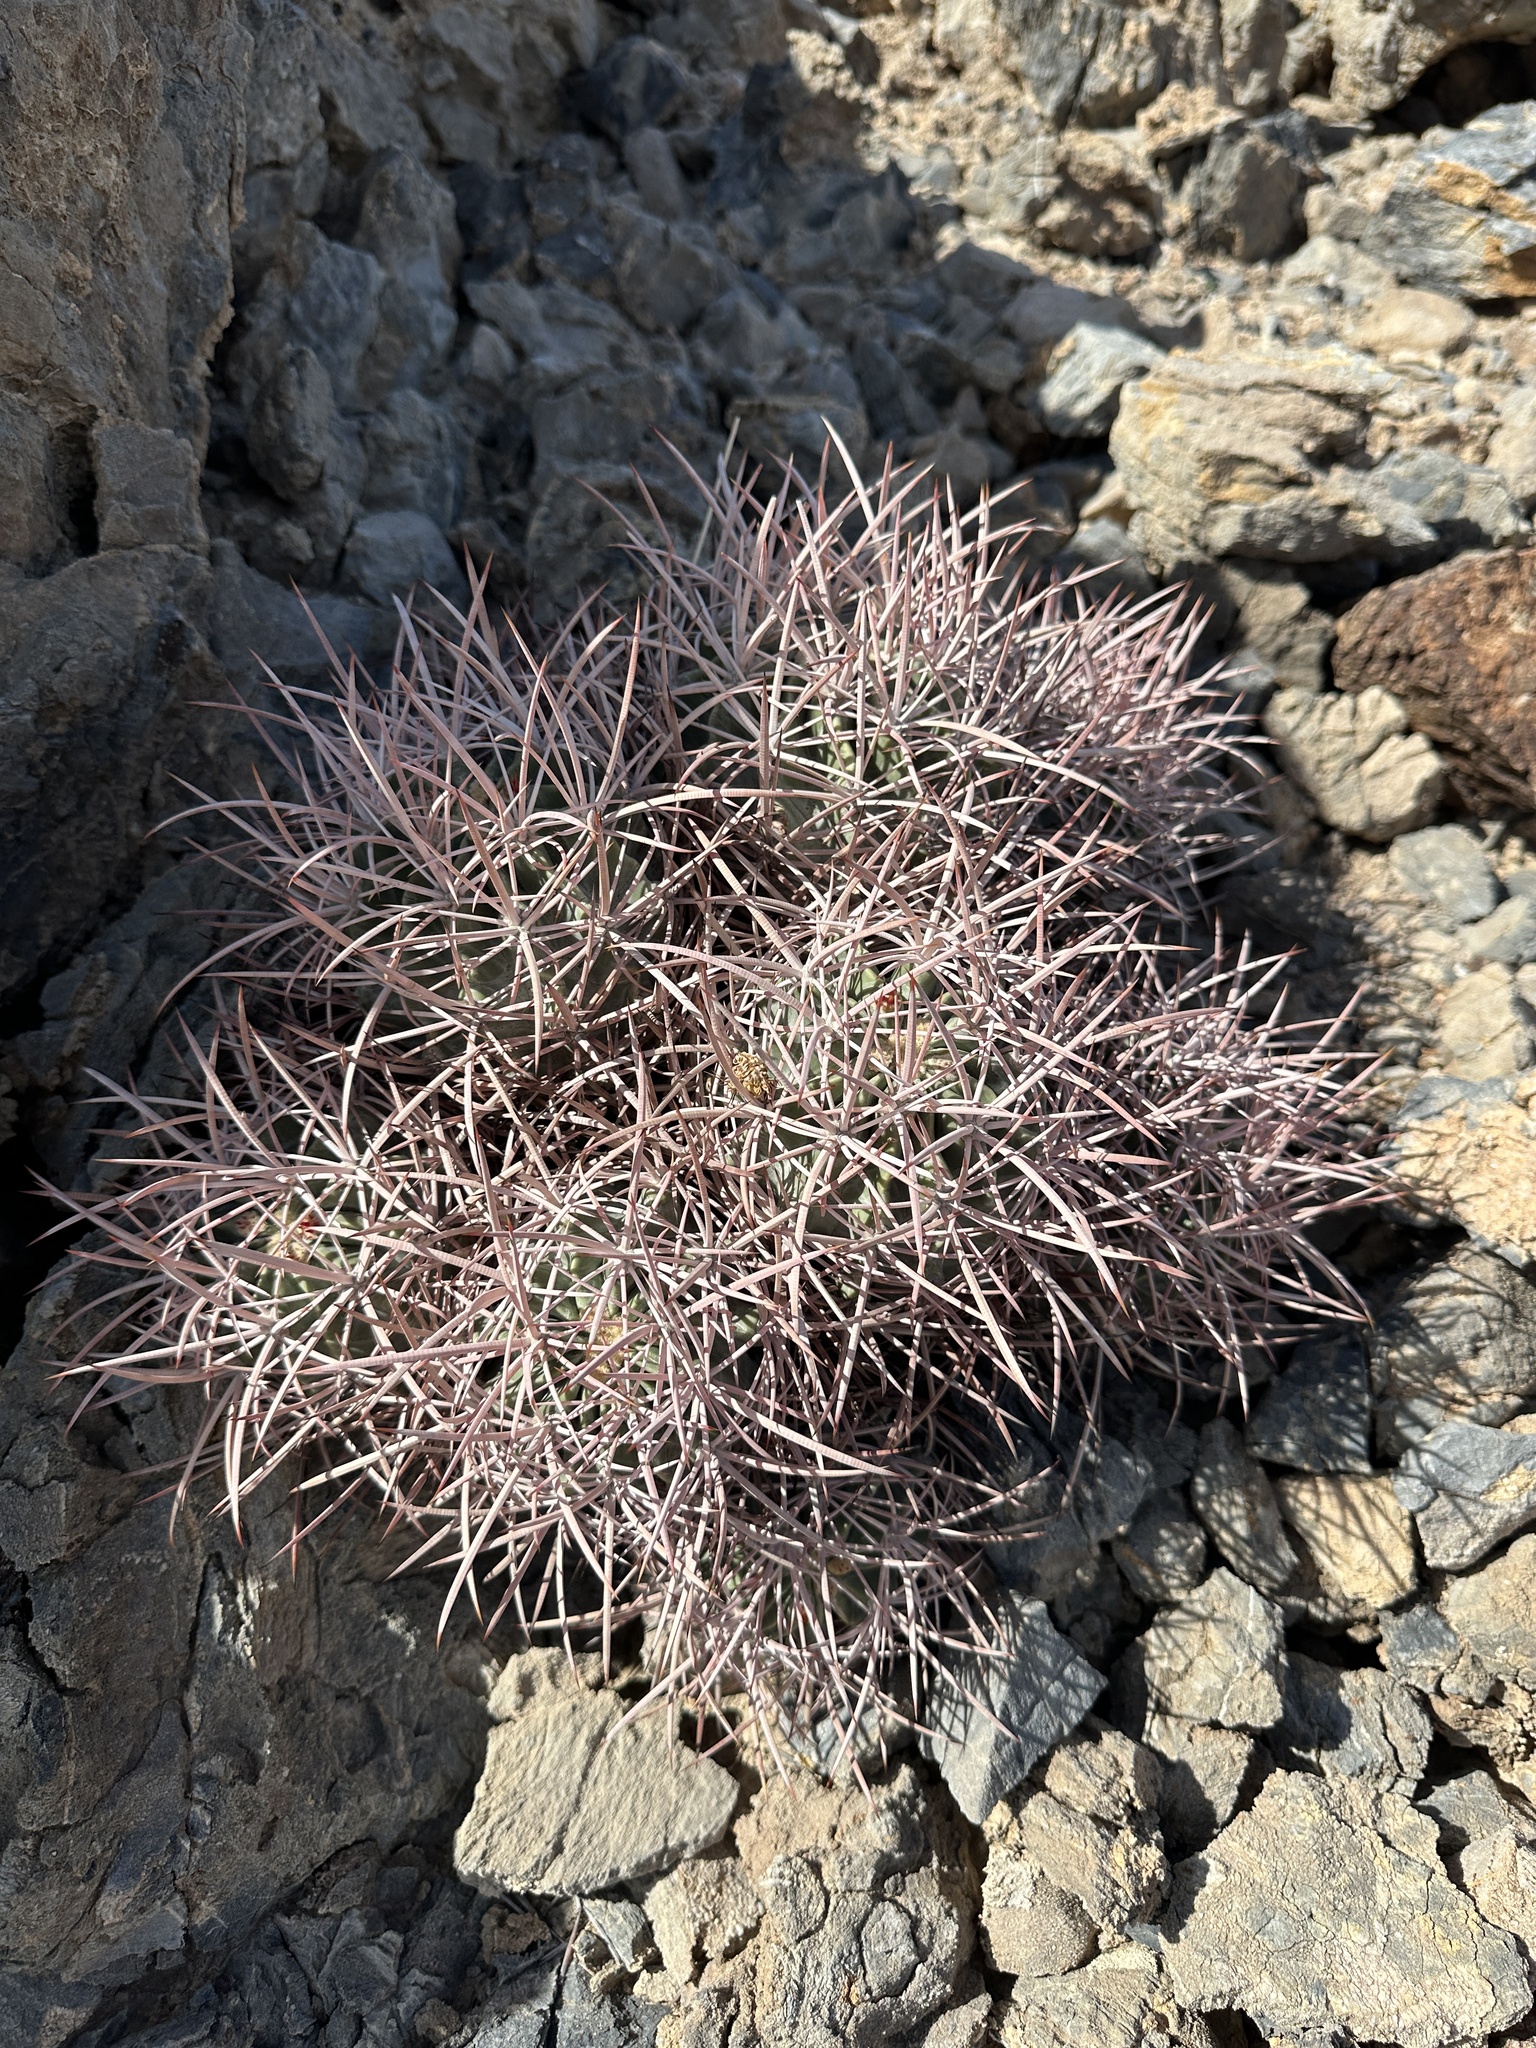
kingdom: Plantae
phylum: Tracheophyta
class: Magnoliopsida
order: Caryophyllales
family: Cactaceae
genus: Echinocactus
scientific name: Echinocactus polycephalus
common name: Cottontop cactus
